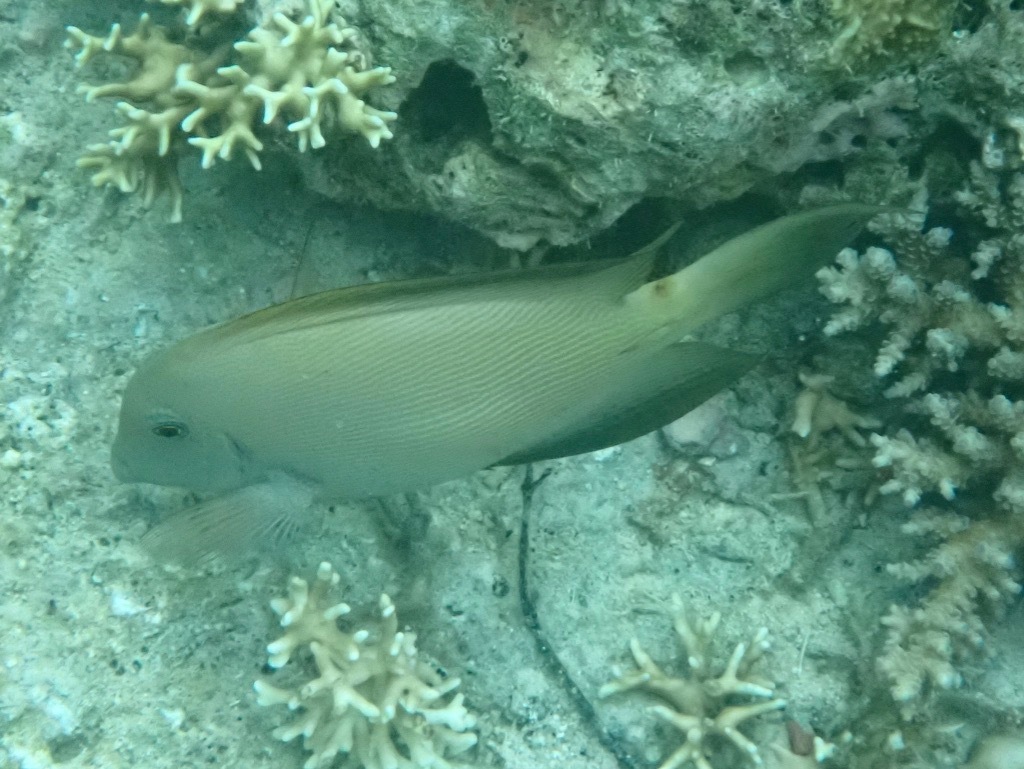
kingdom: Animalia
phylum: Chordata
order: Perciformes
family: Acanthuridae
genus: Ctenochaetus
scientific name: Ctenochaetus striatus
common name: Bristle-toothed surgeonfish
